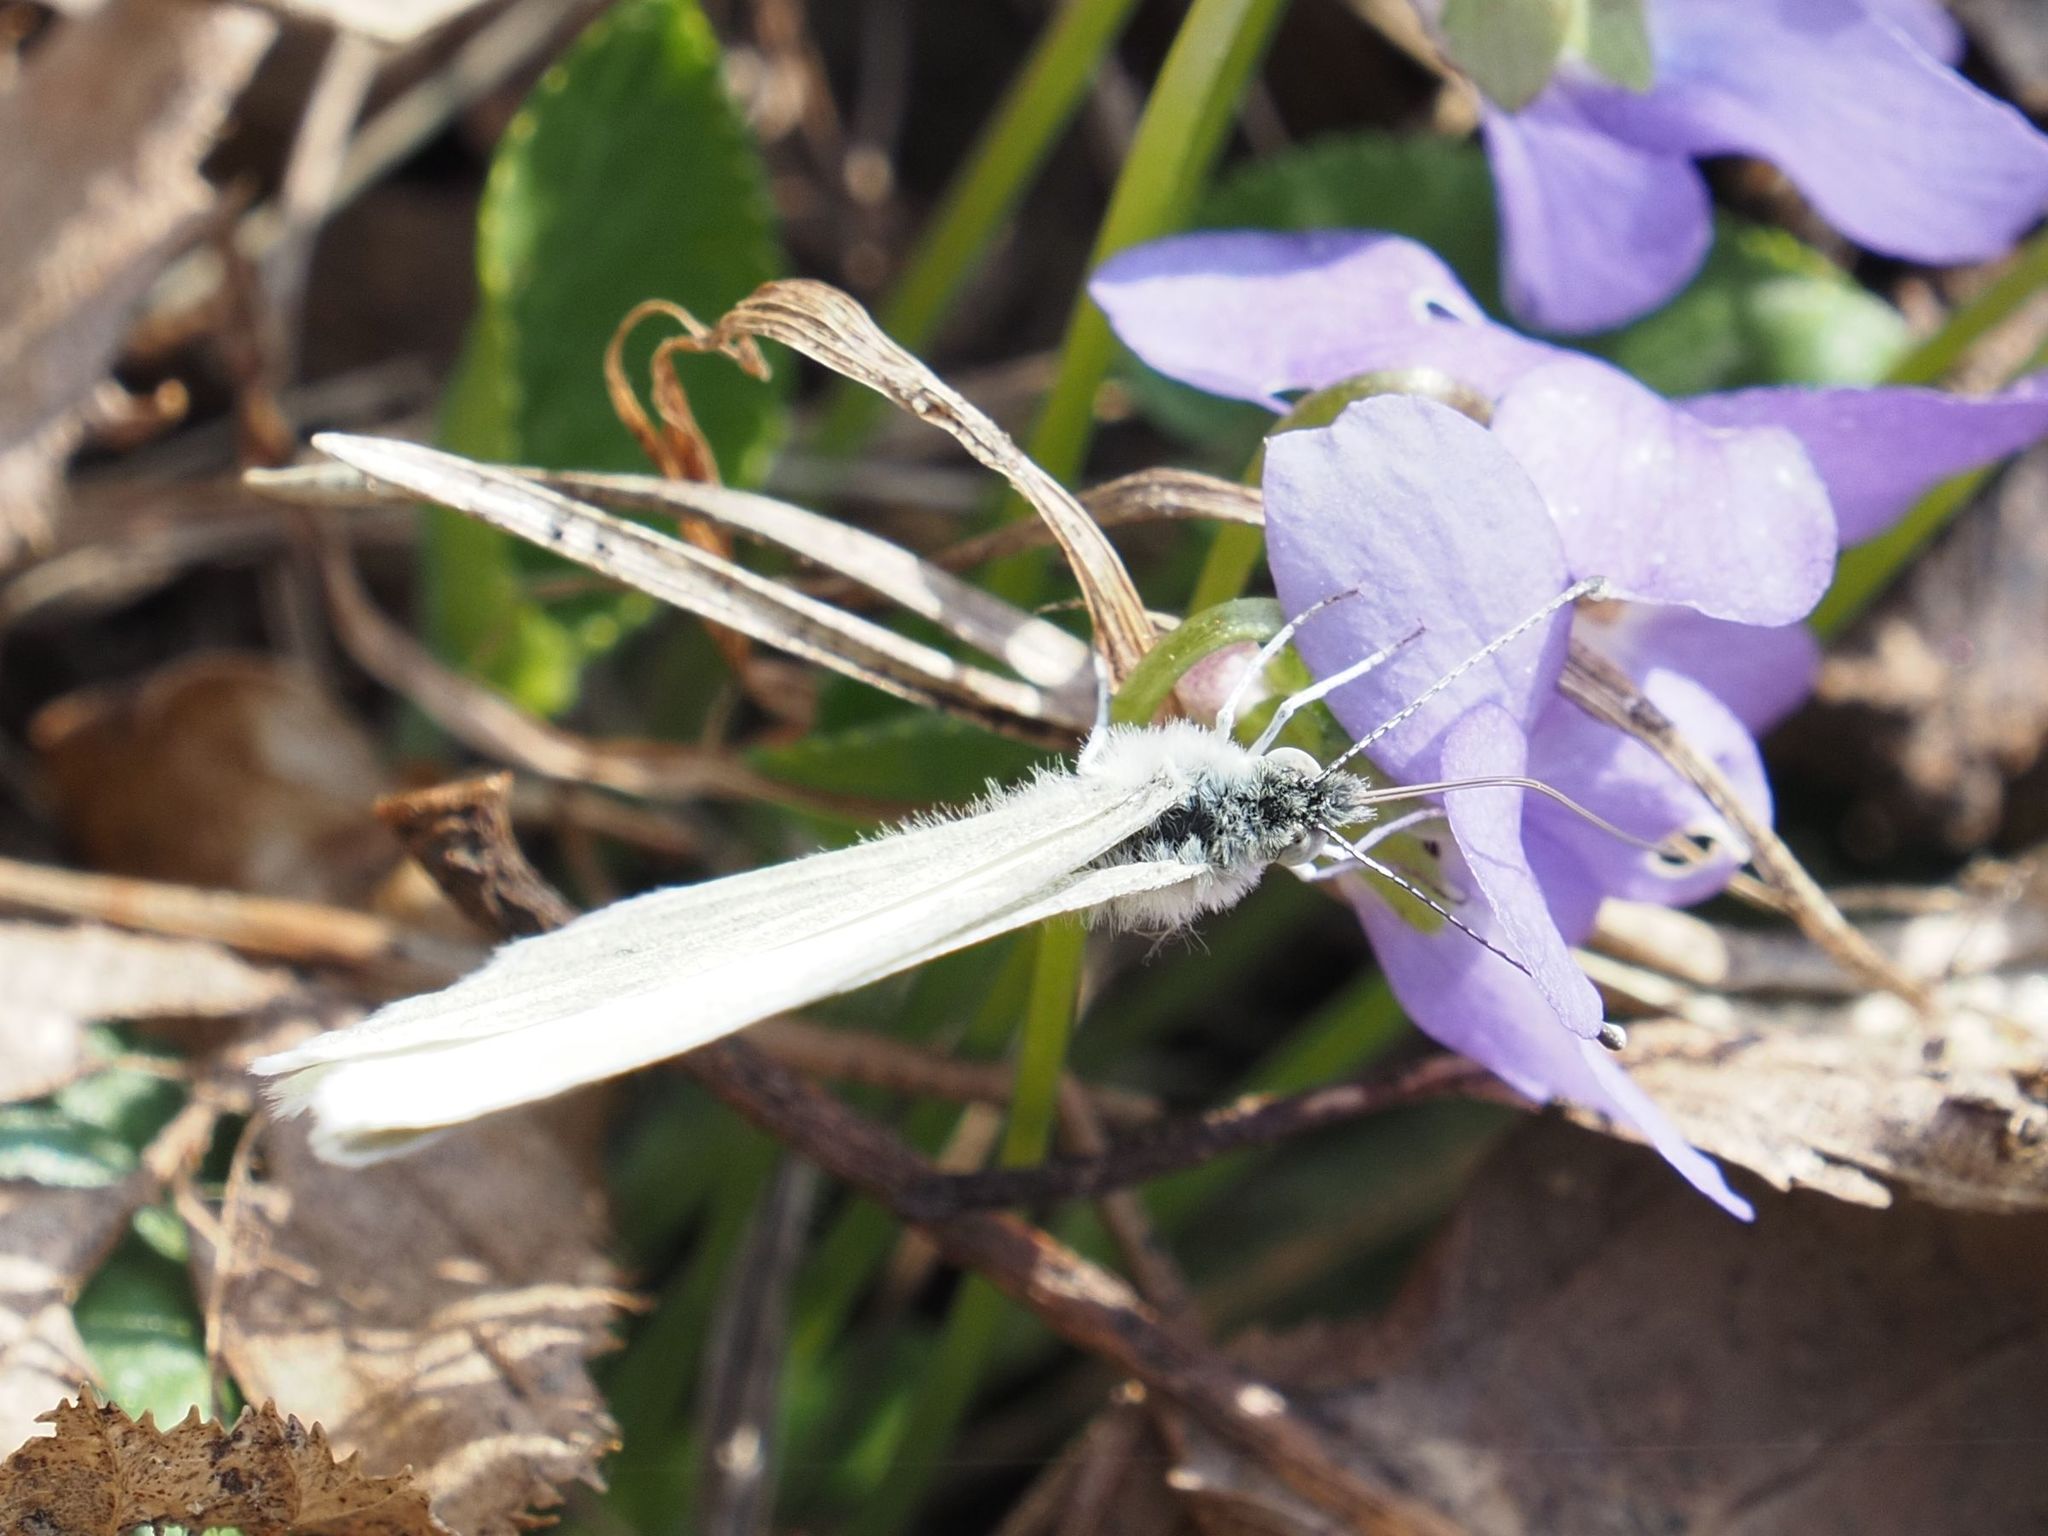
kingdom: Animalia
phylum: Arthropoda
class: Insecta
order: Lepidoptera
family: Pieridae
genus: Leptidea
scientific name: Leptidea
